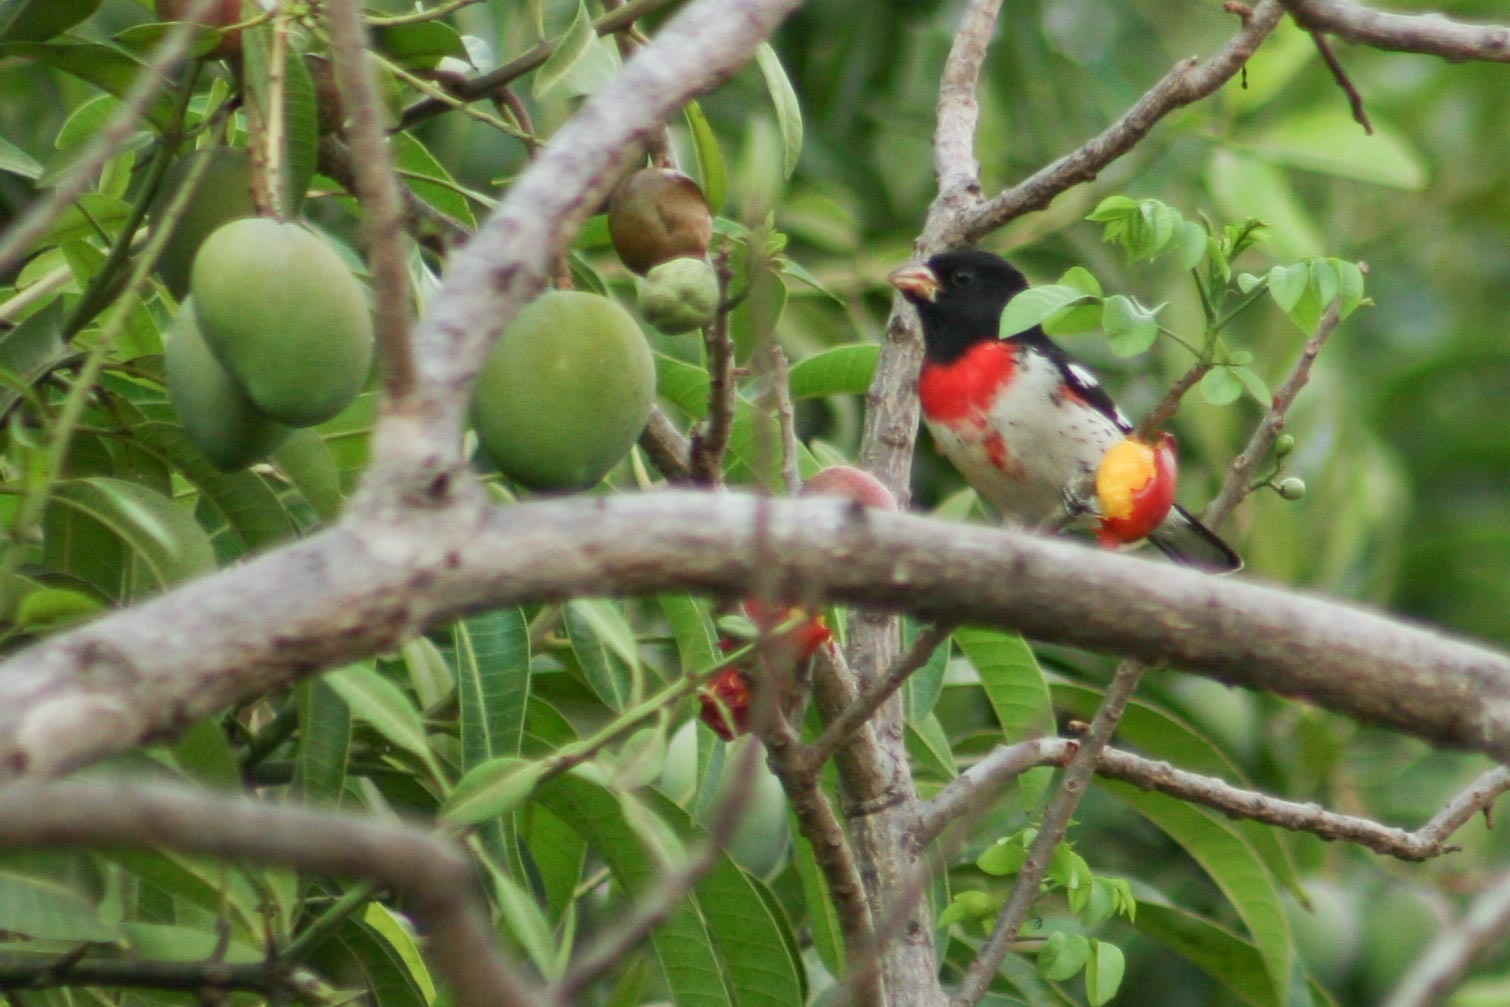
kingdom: Animalia
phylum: Chordata
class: Aves
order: Passeriformes
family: Cardinalidae
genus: Pheucticus
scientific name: Pheucticus ludovicianus
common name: Rose-breasted grosbeak
